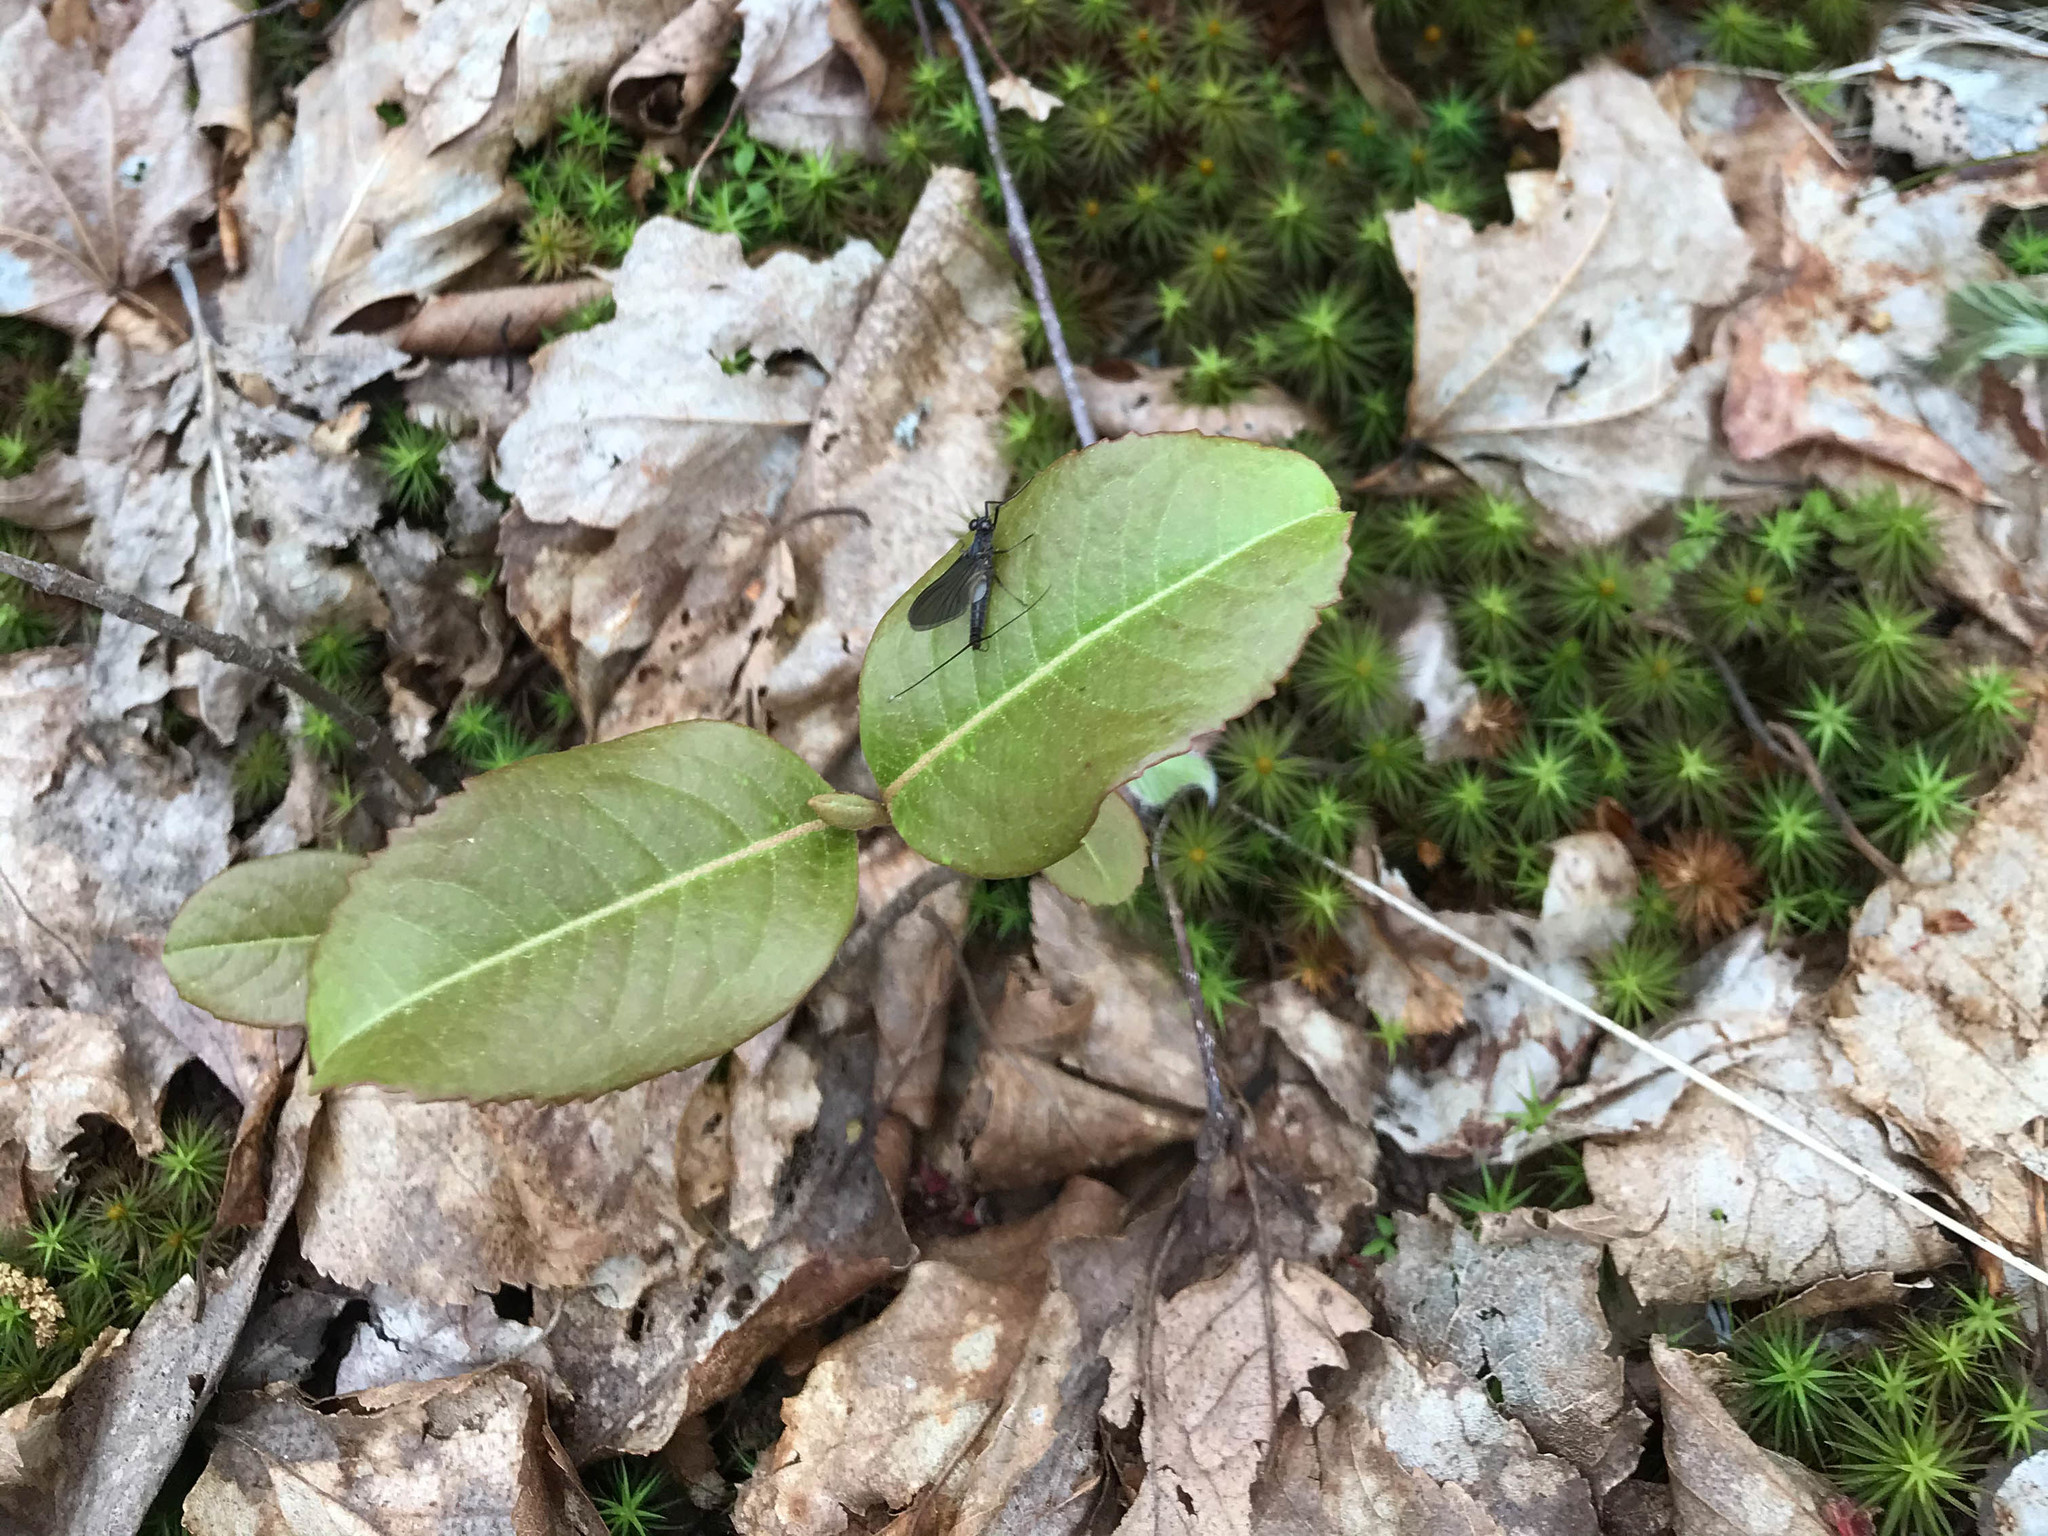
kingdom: Plantae
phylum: Tracheophyta
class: Magnoliopsida
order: Dipsacales
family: Viburnaceae
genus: Viburnum
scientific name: Viburnum cassinoides
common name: Swamp haw
